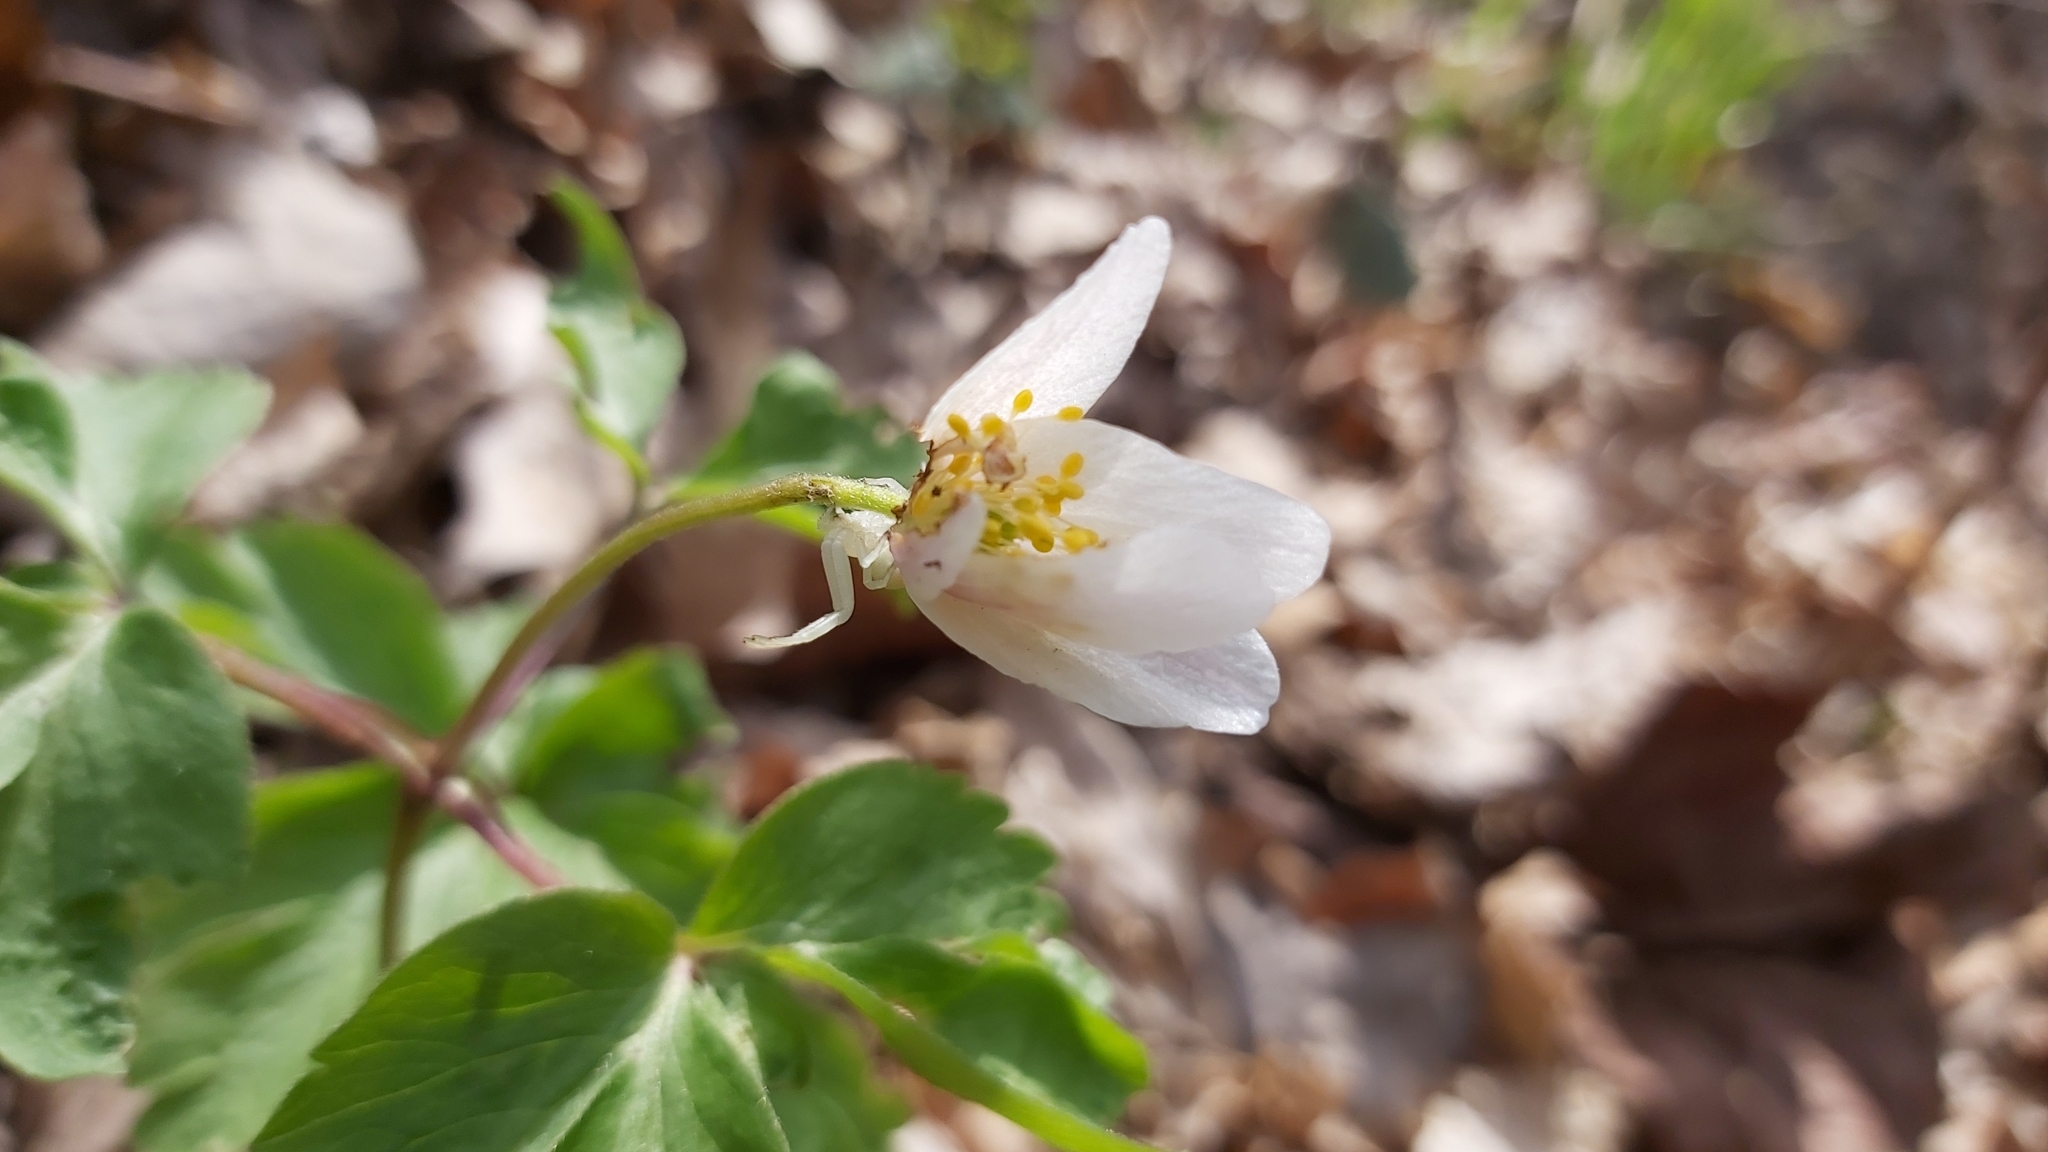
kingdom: Animalia
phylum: Arthropoda
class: Arachnida
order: Araneae
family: Thomisidae
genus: Misumena
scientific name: Misumena vatia
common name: Goldenrod crab spider
